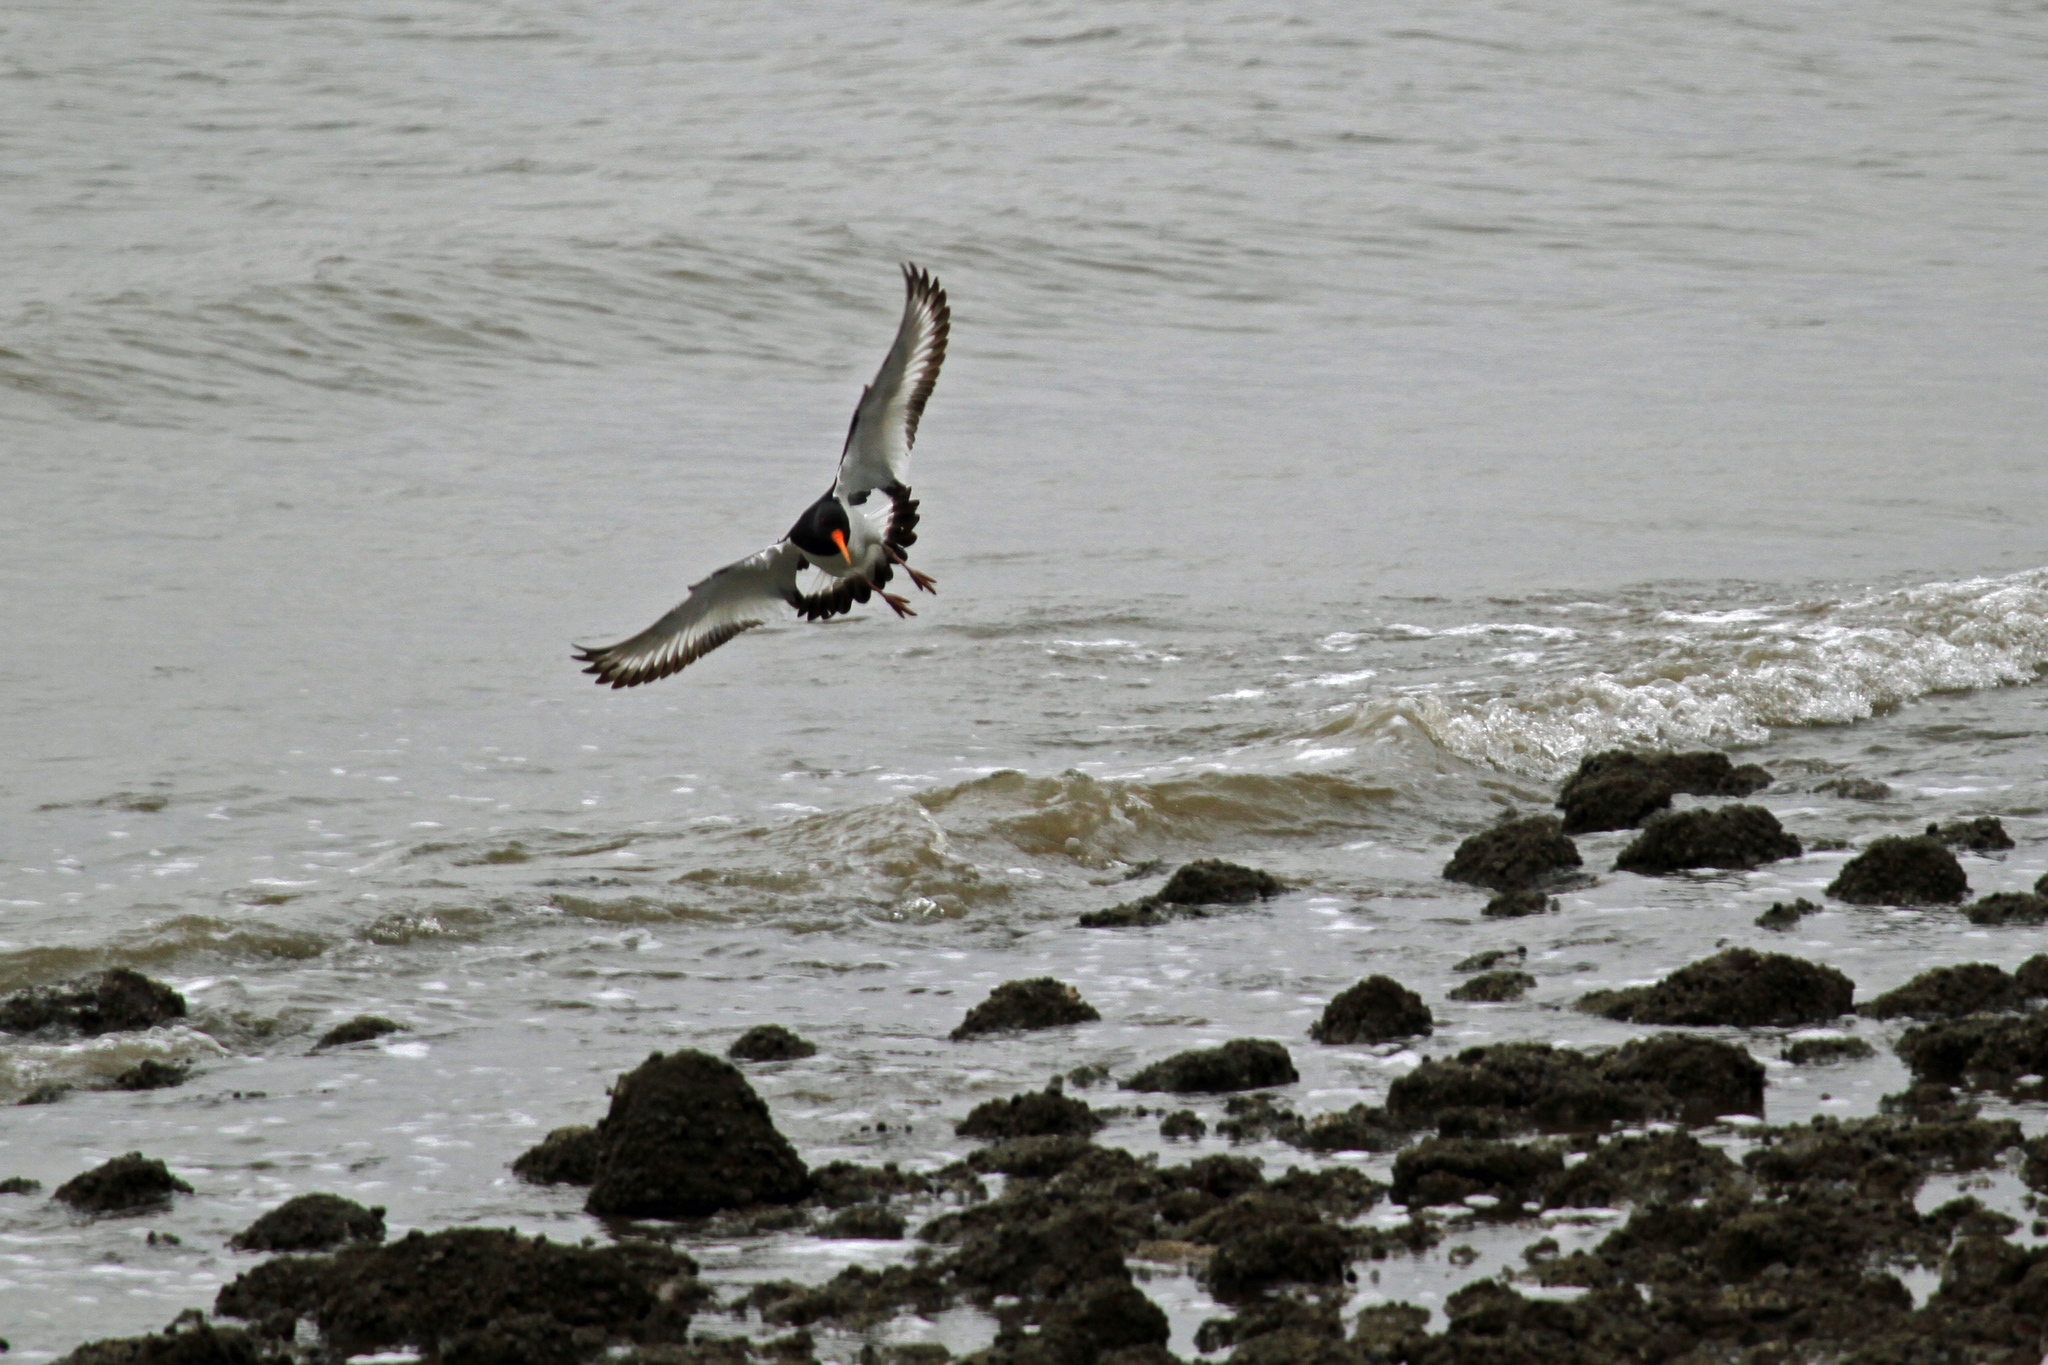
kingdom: Animalia
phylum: Chordata
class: Aves
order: Charadriiformes
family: Haematopodidae
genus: Haematopus
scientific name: Haematopus ostralegus
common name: Eurasian oystercatcher
